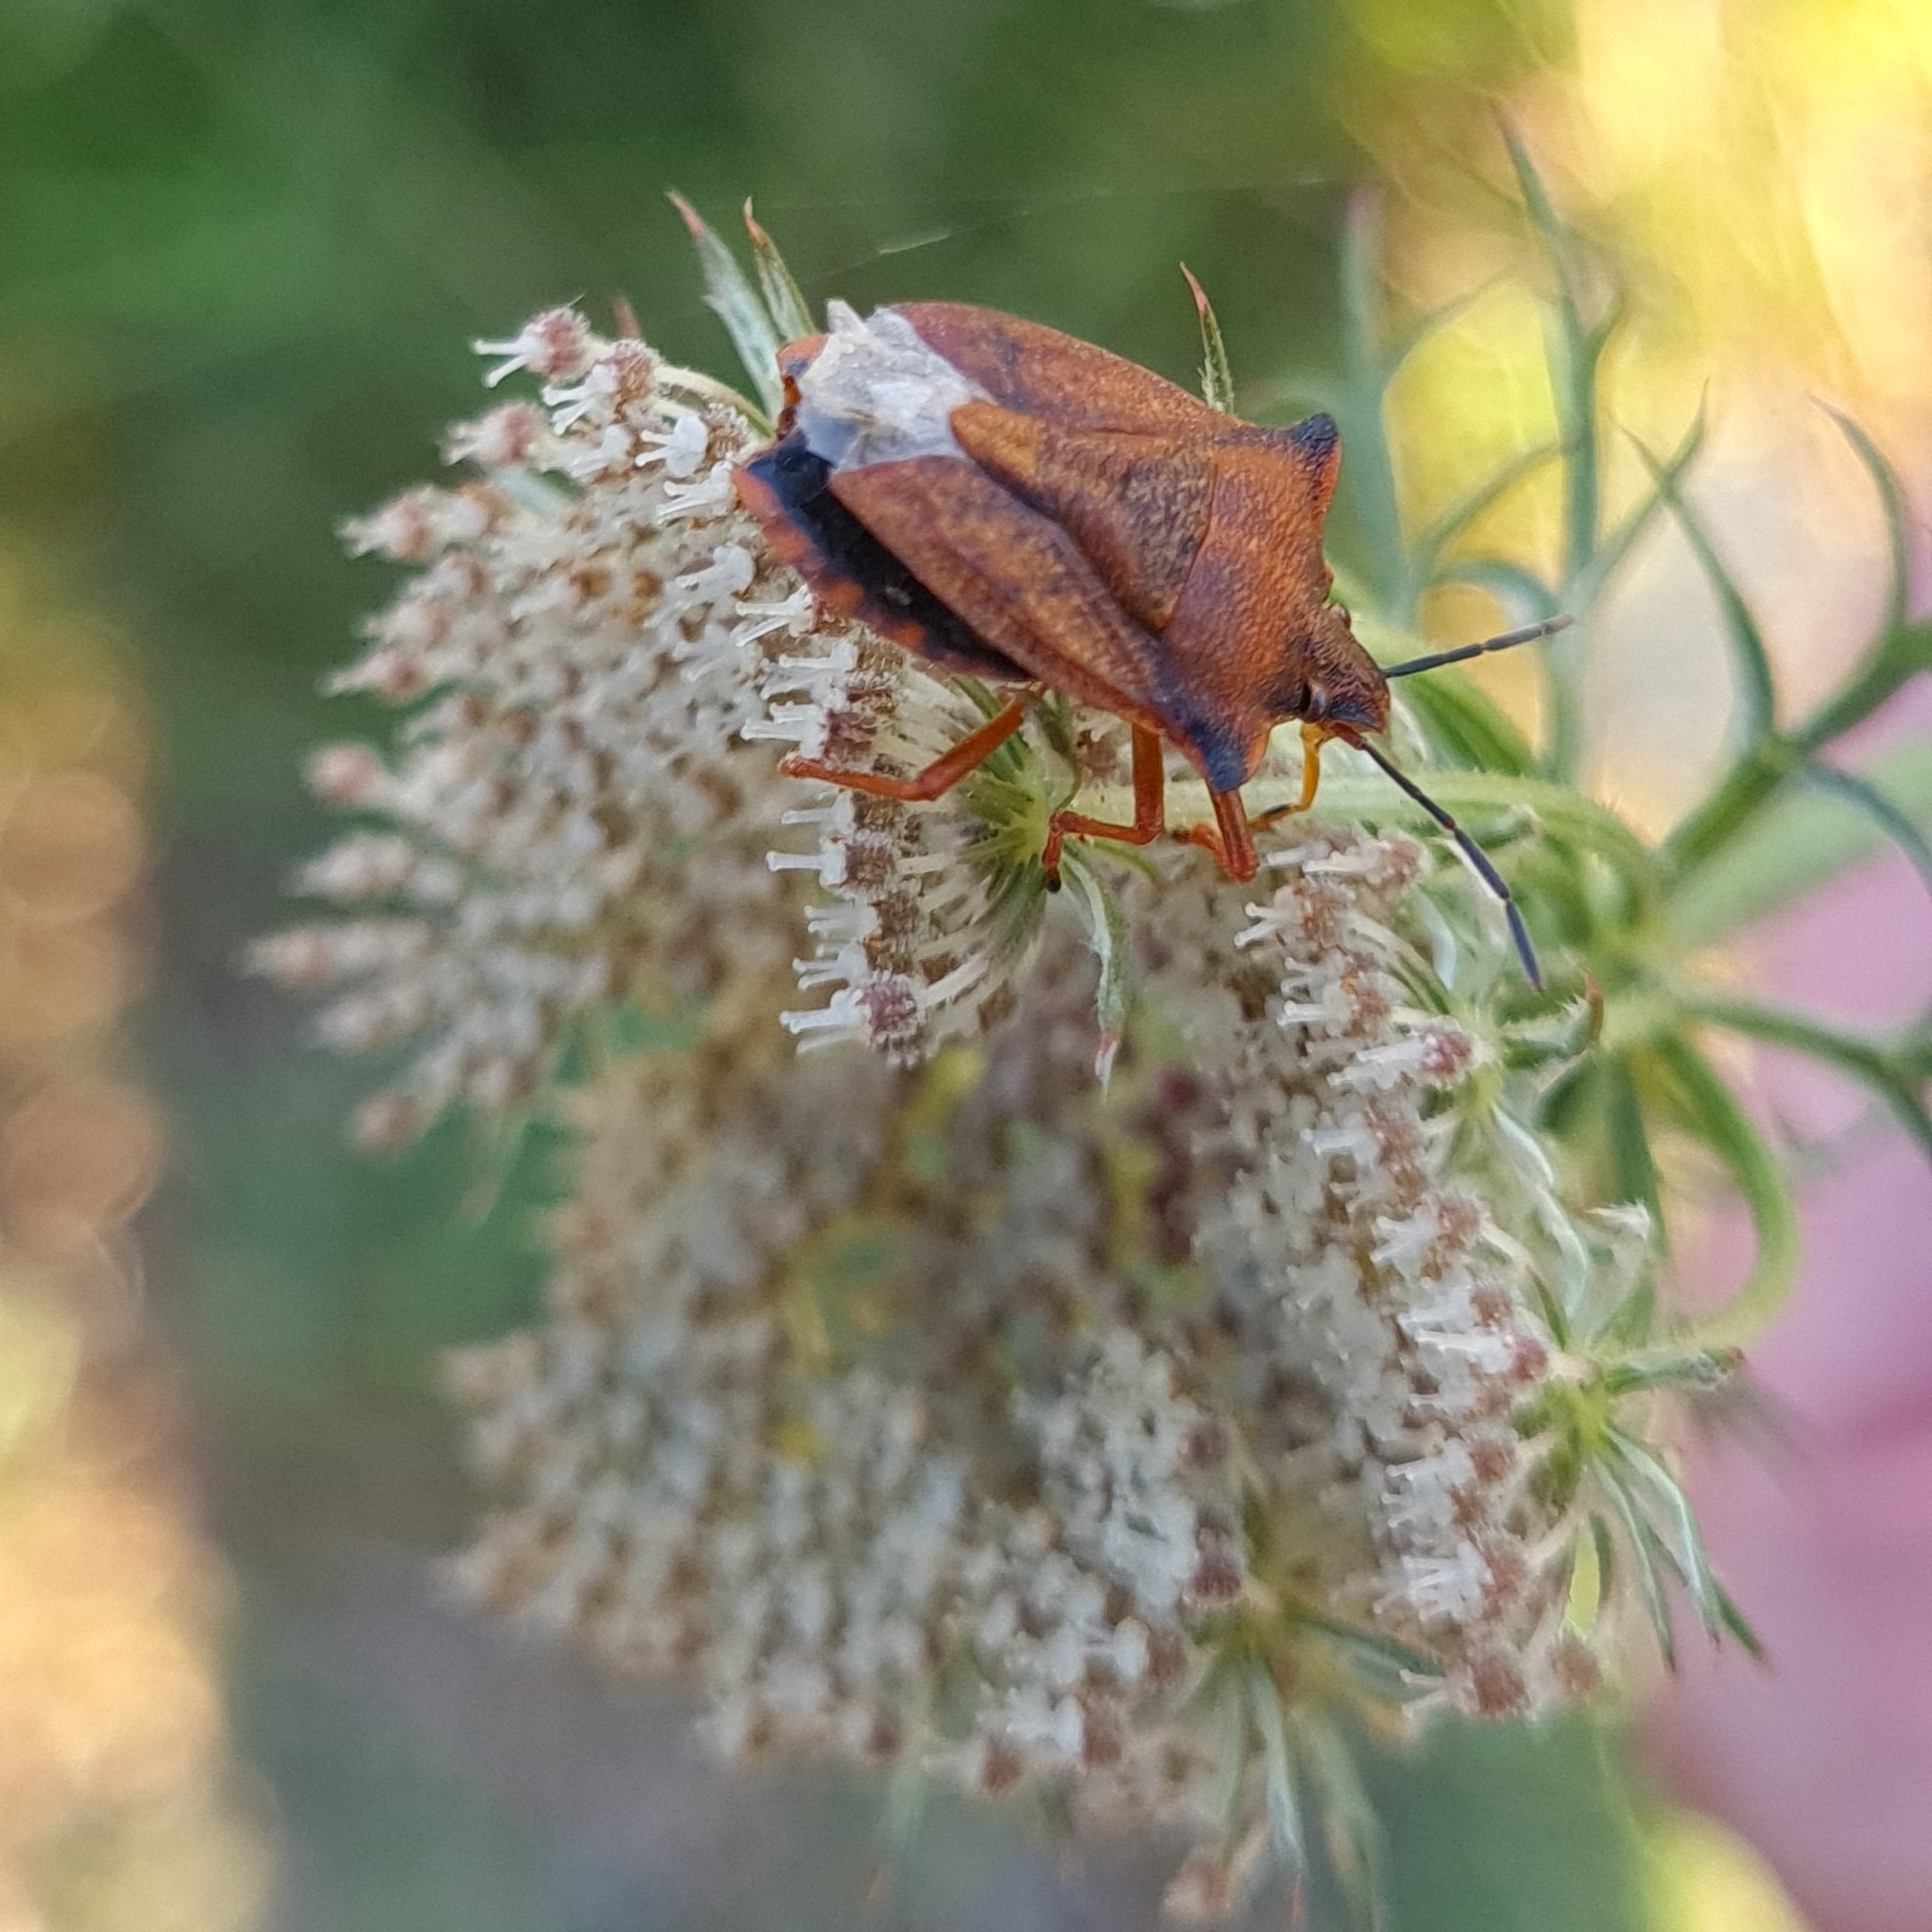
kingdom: Animalia
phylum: Arthropoda
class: Insecta
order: Hemiptera
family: Pentatomidae
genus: Carpocoris
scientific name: Carpocoris mediterraneus
